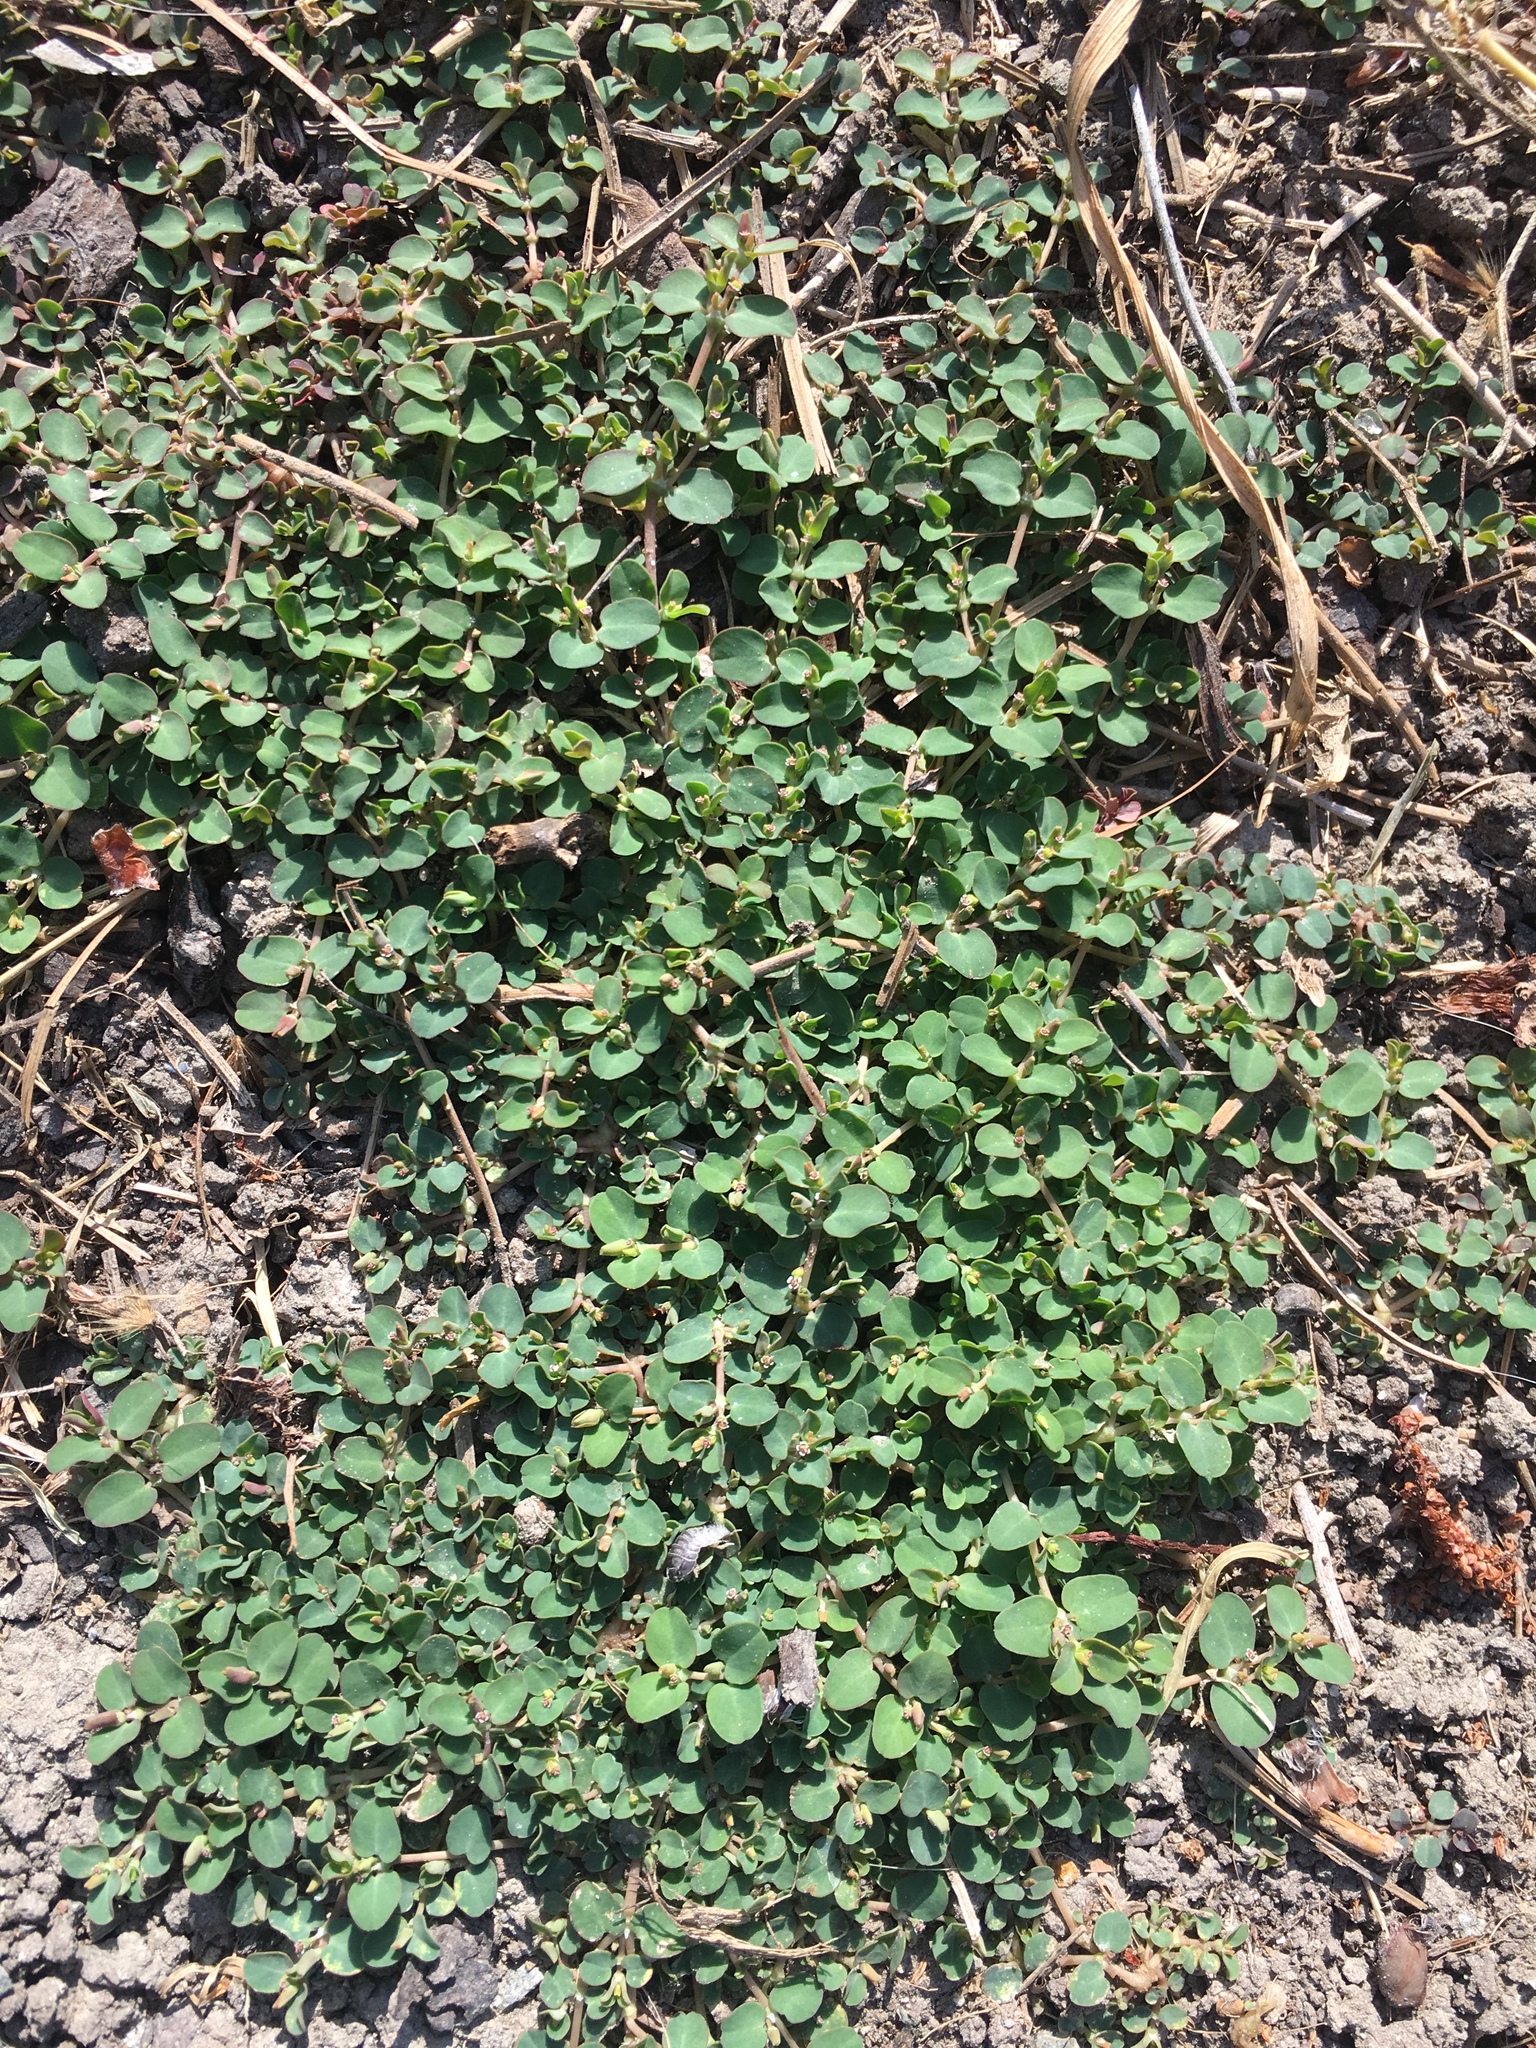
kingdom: Plantae
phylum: Tracheophyta
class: Magnoliopsida
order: Malpighiales
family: Euphorbiaceae
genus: Euphorbia
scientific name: Euphorbia serpens
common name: Matted sandmat
